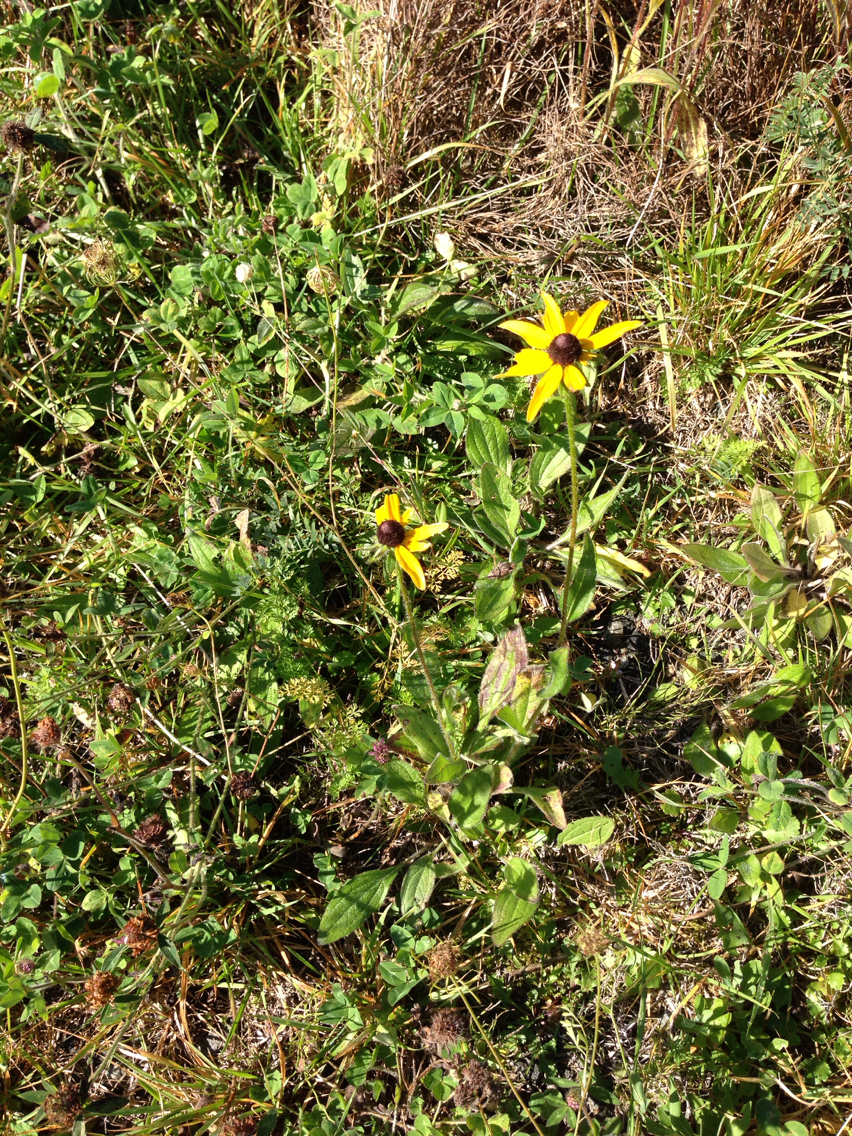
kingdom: Plantae
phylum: Tracheophyta
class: Magnoliopsida
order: Asterales
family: Asteraceae
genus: Rudbeckia
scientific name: Rudbeckia hirta
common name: Black-eyed-susan
